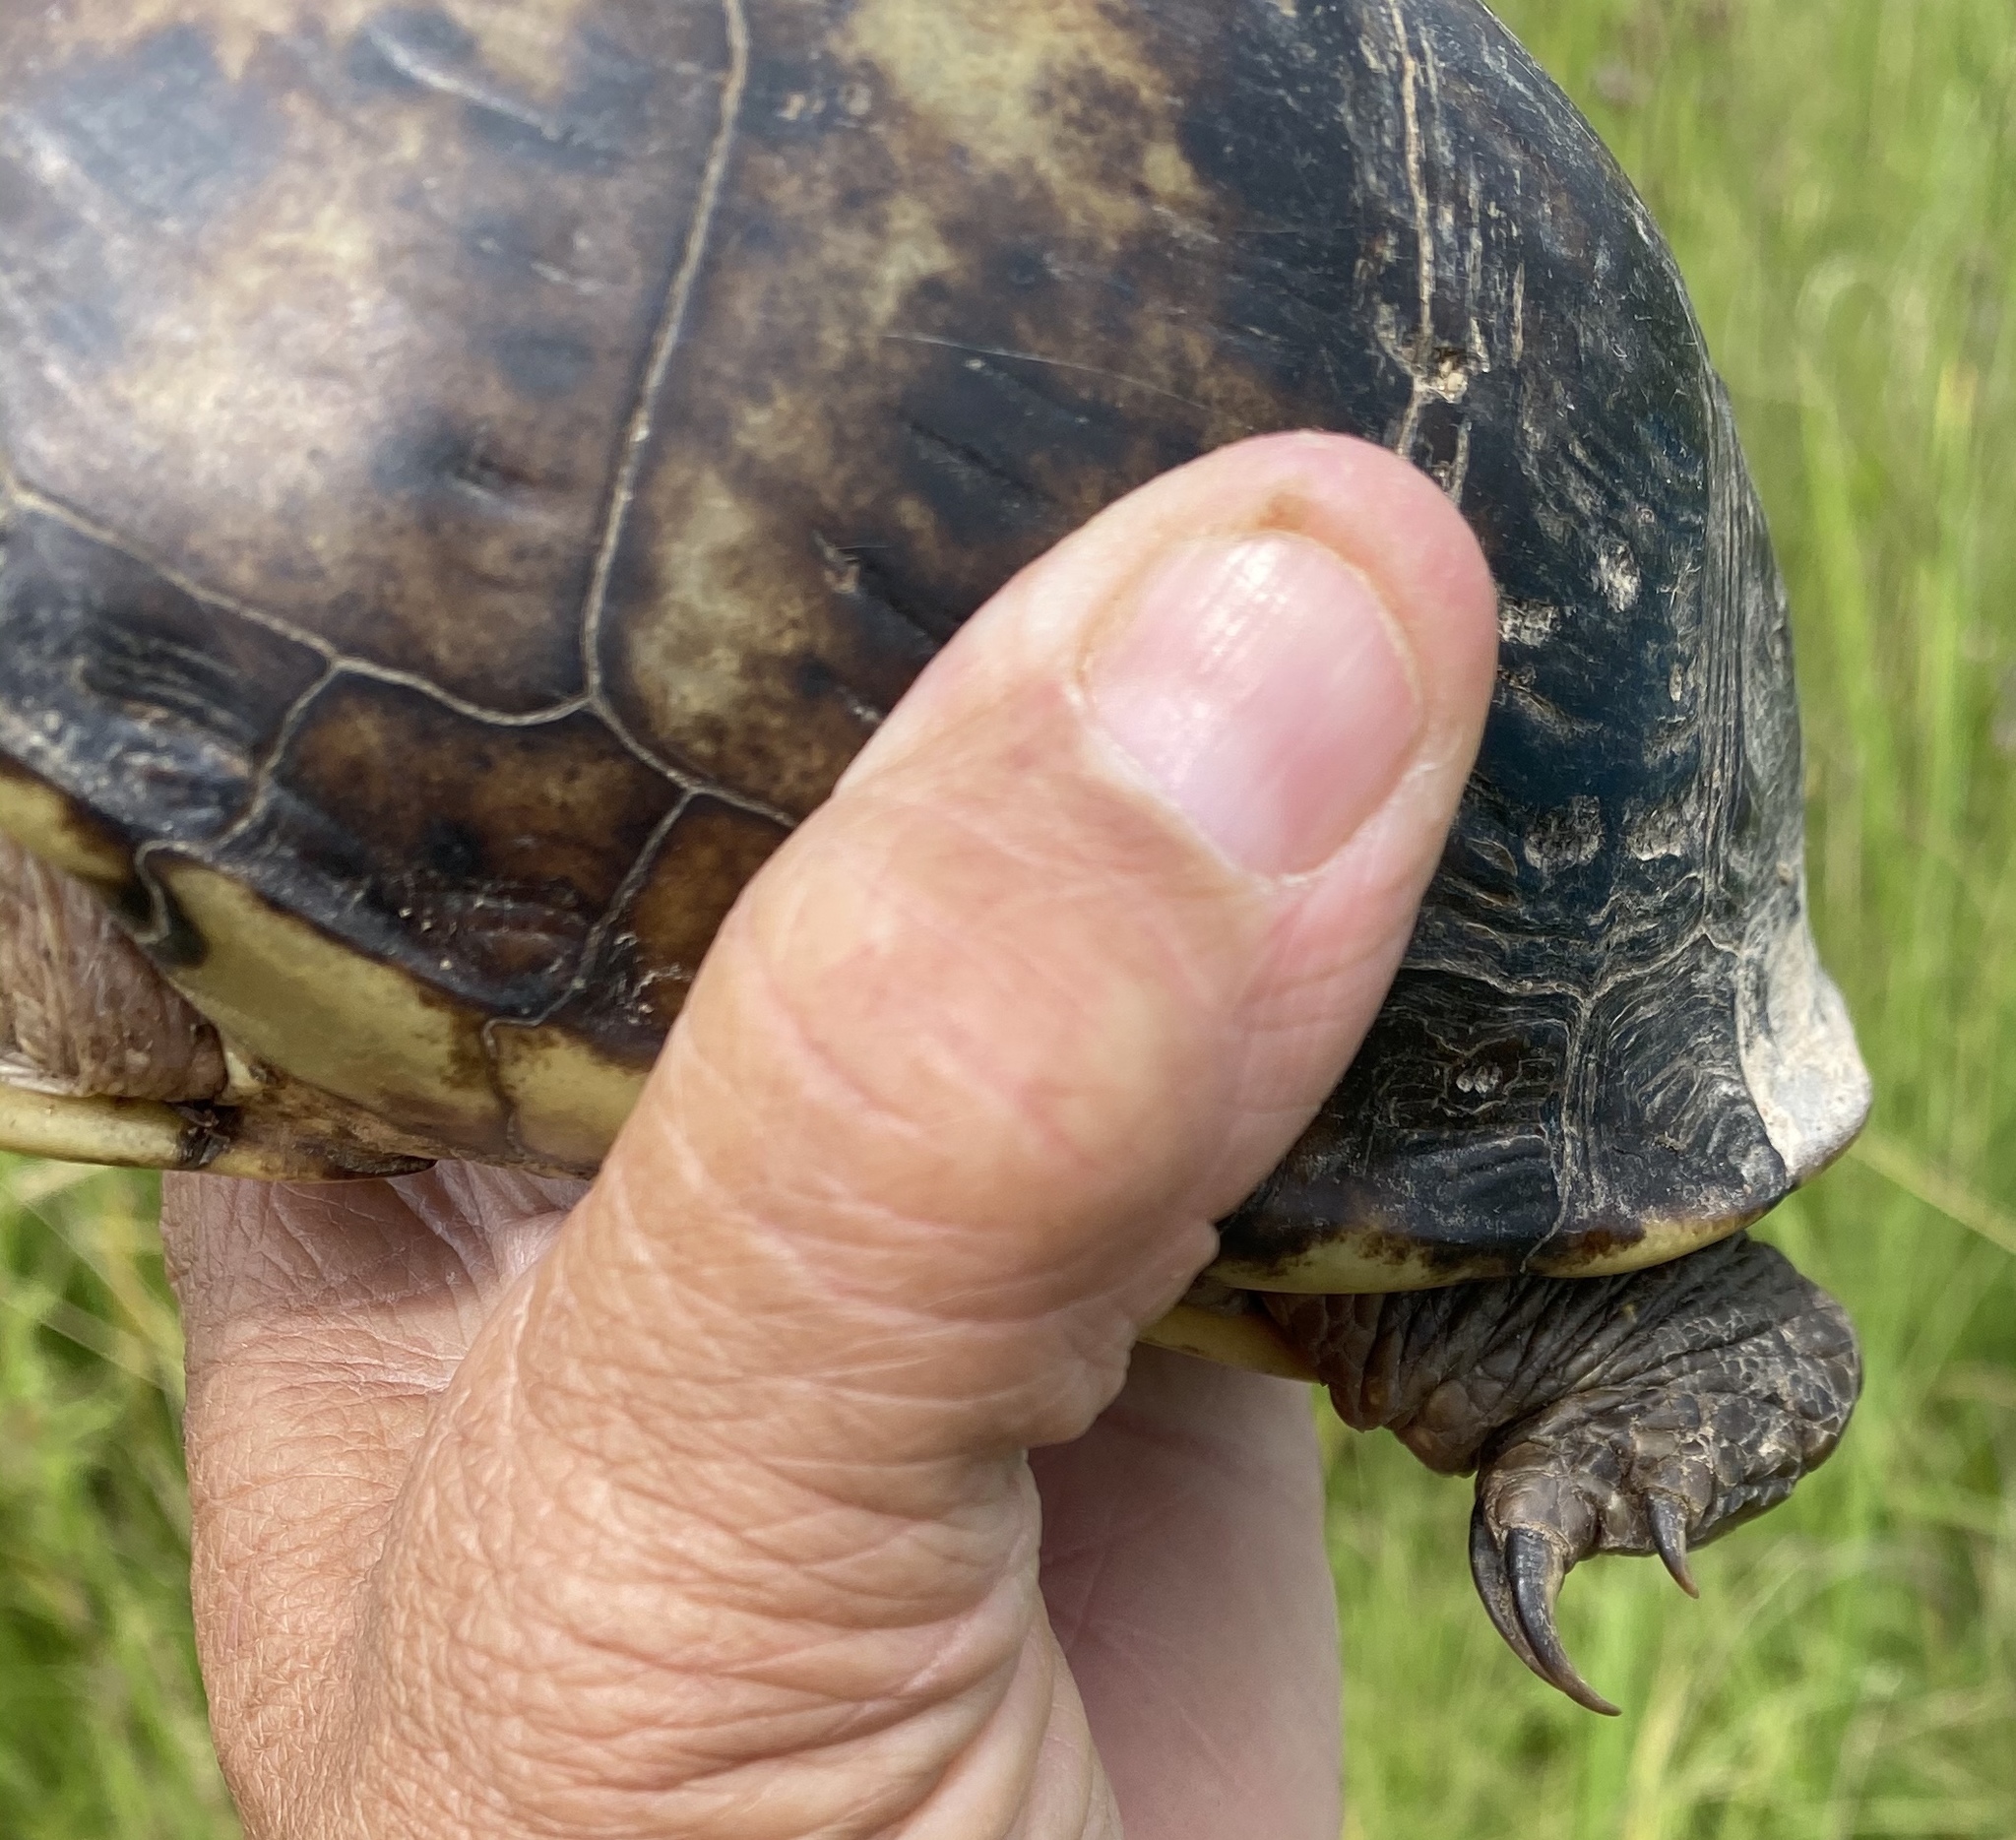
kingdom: Animalia
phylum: Chordata
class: Testudines
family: Emydidae
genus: Terrapene
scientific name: Terrapene carolina
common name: Common box turtle
